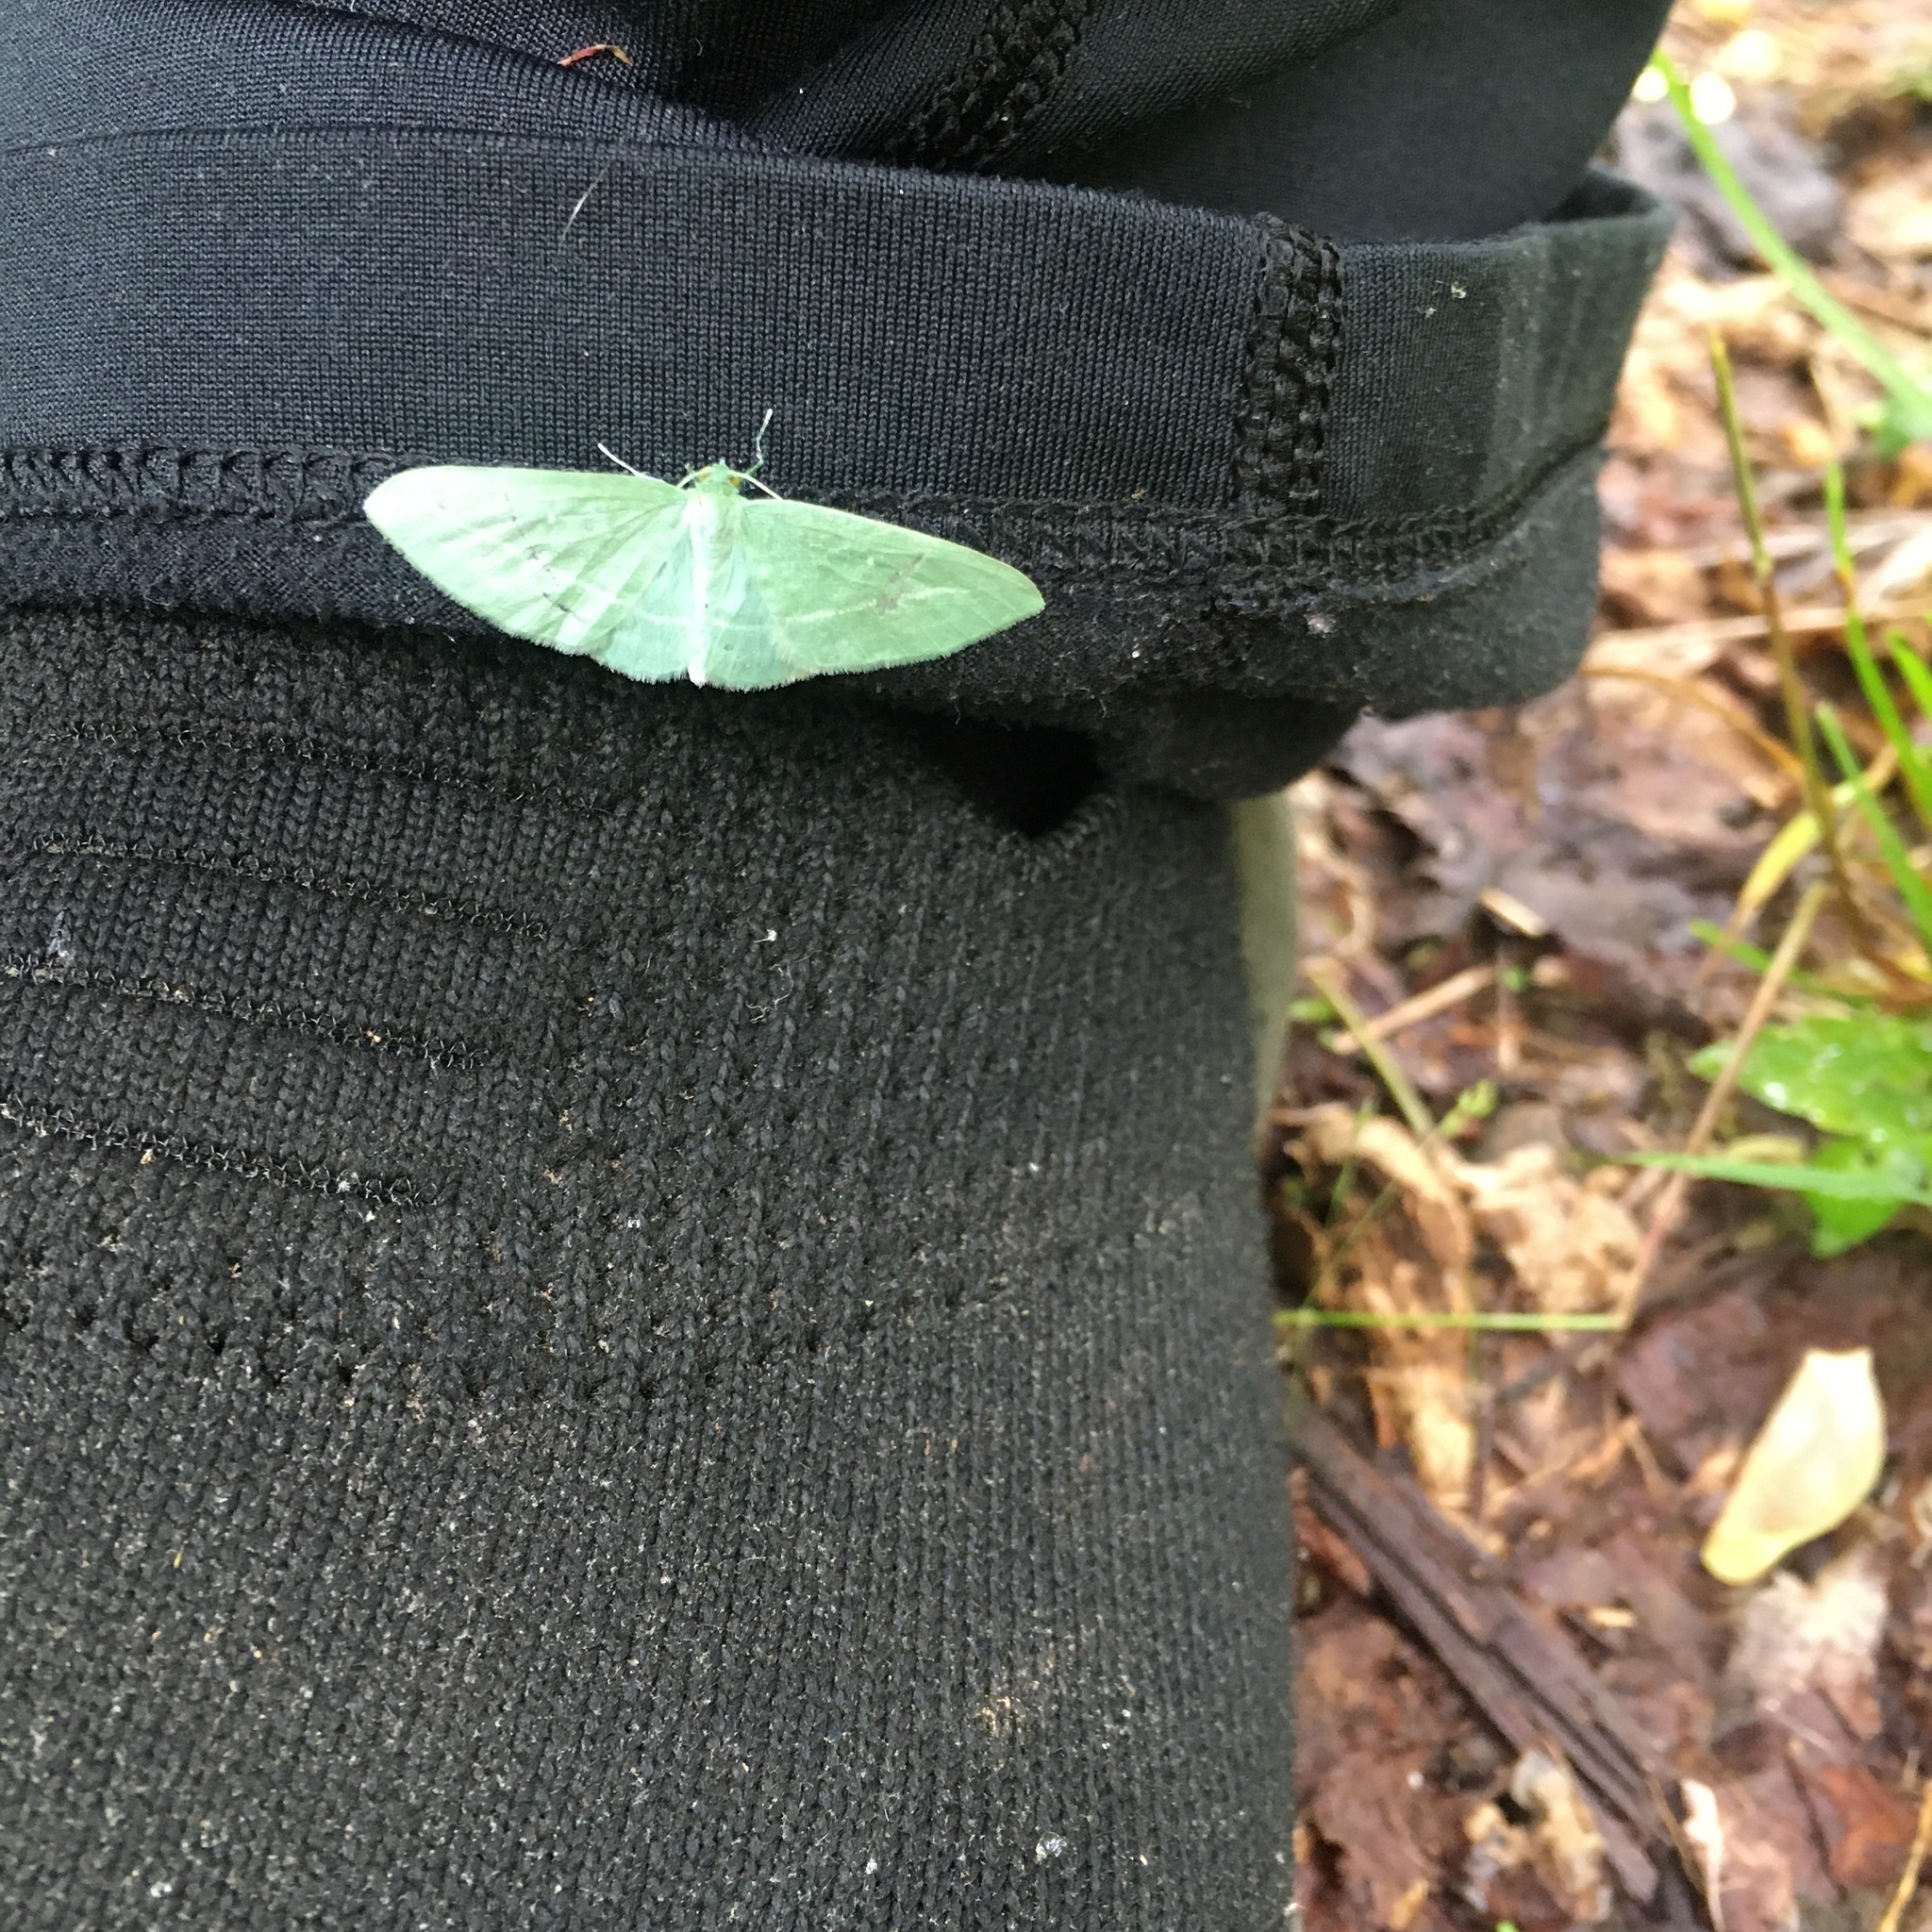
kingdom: Animalia
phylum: Arthropoda
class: Insecta
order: Lepidoptera
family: Geometridae
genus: Dyspteris
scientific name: Dyspteris abortivaria
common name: Bad-wing
